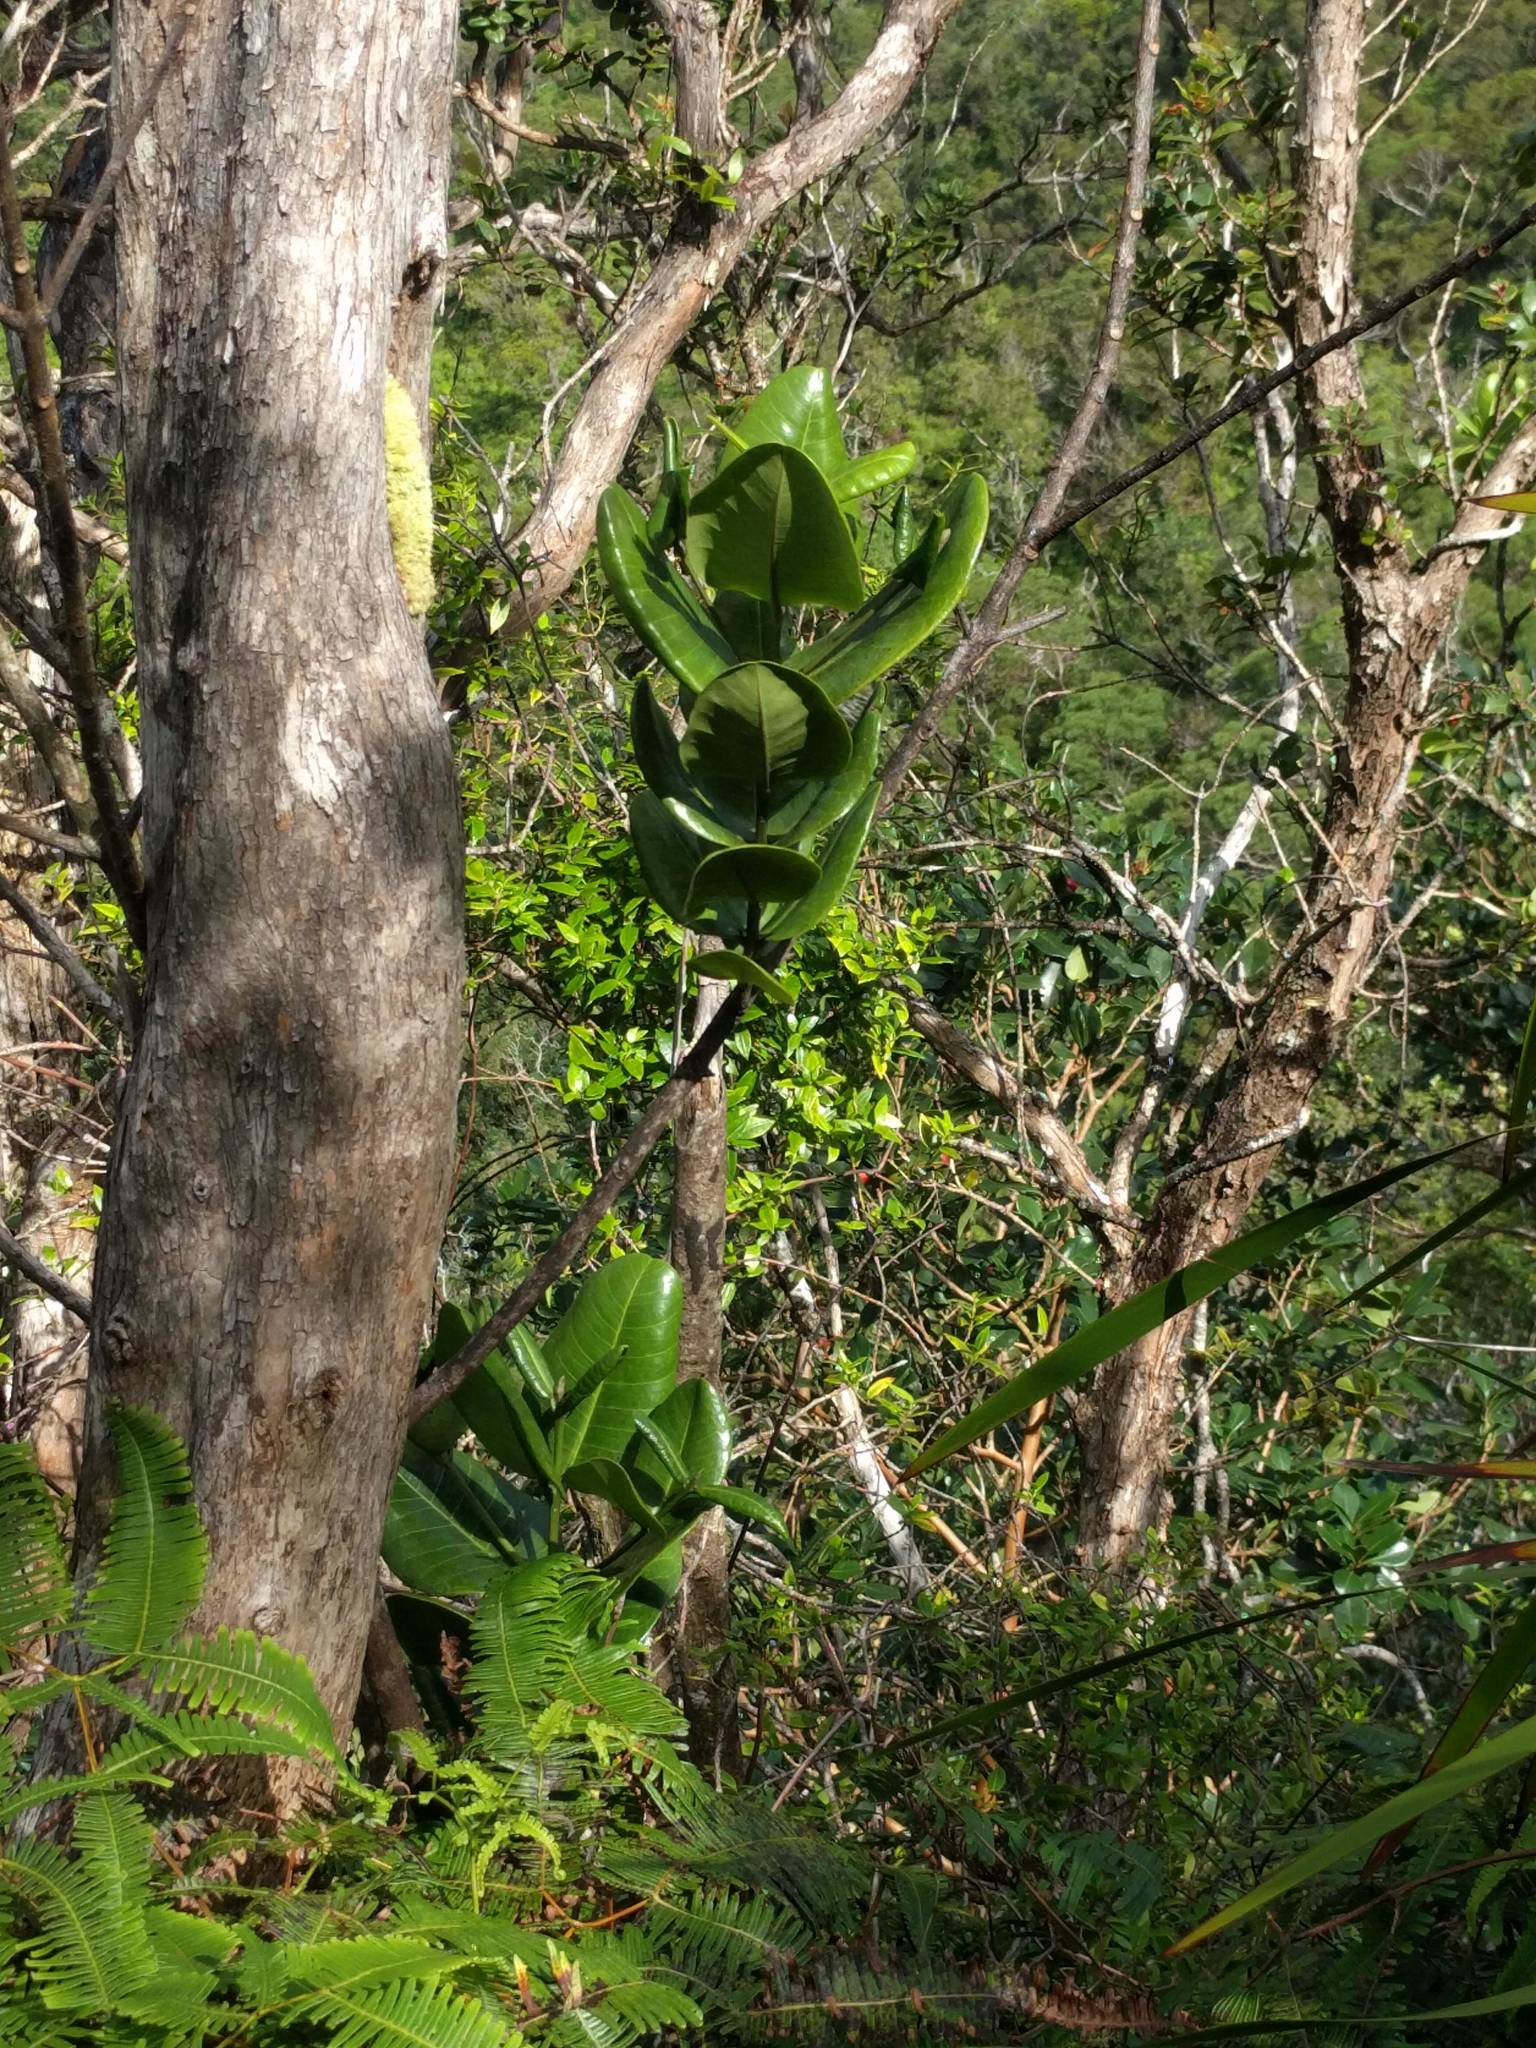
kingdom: Plantae
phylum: Tracheophyta
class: Magnoliopsida
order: Sapindales
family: Rutaceae
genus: Melicope
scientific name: Melicope rotundifolia
